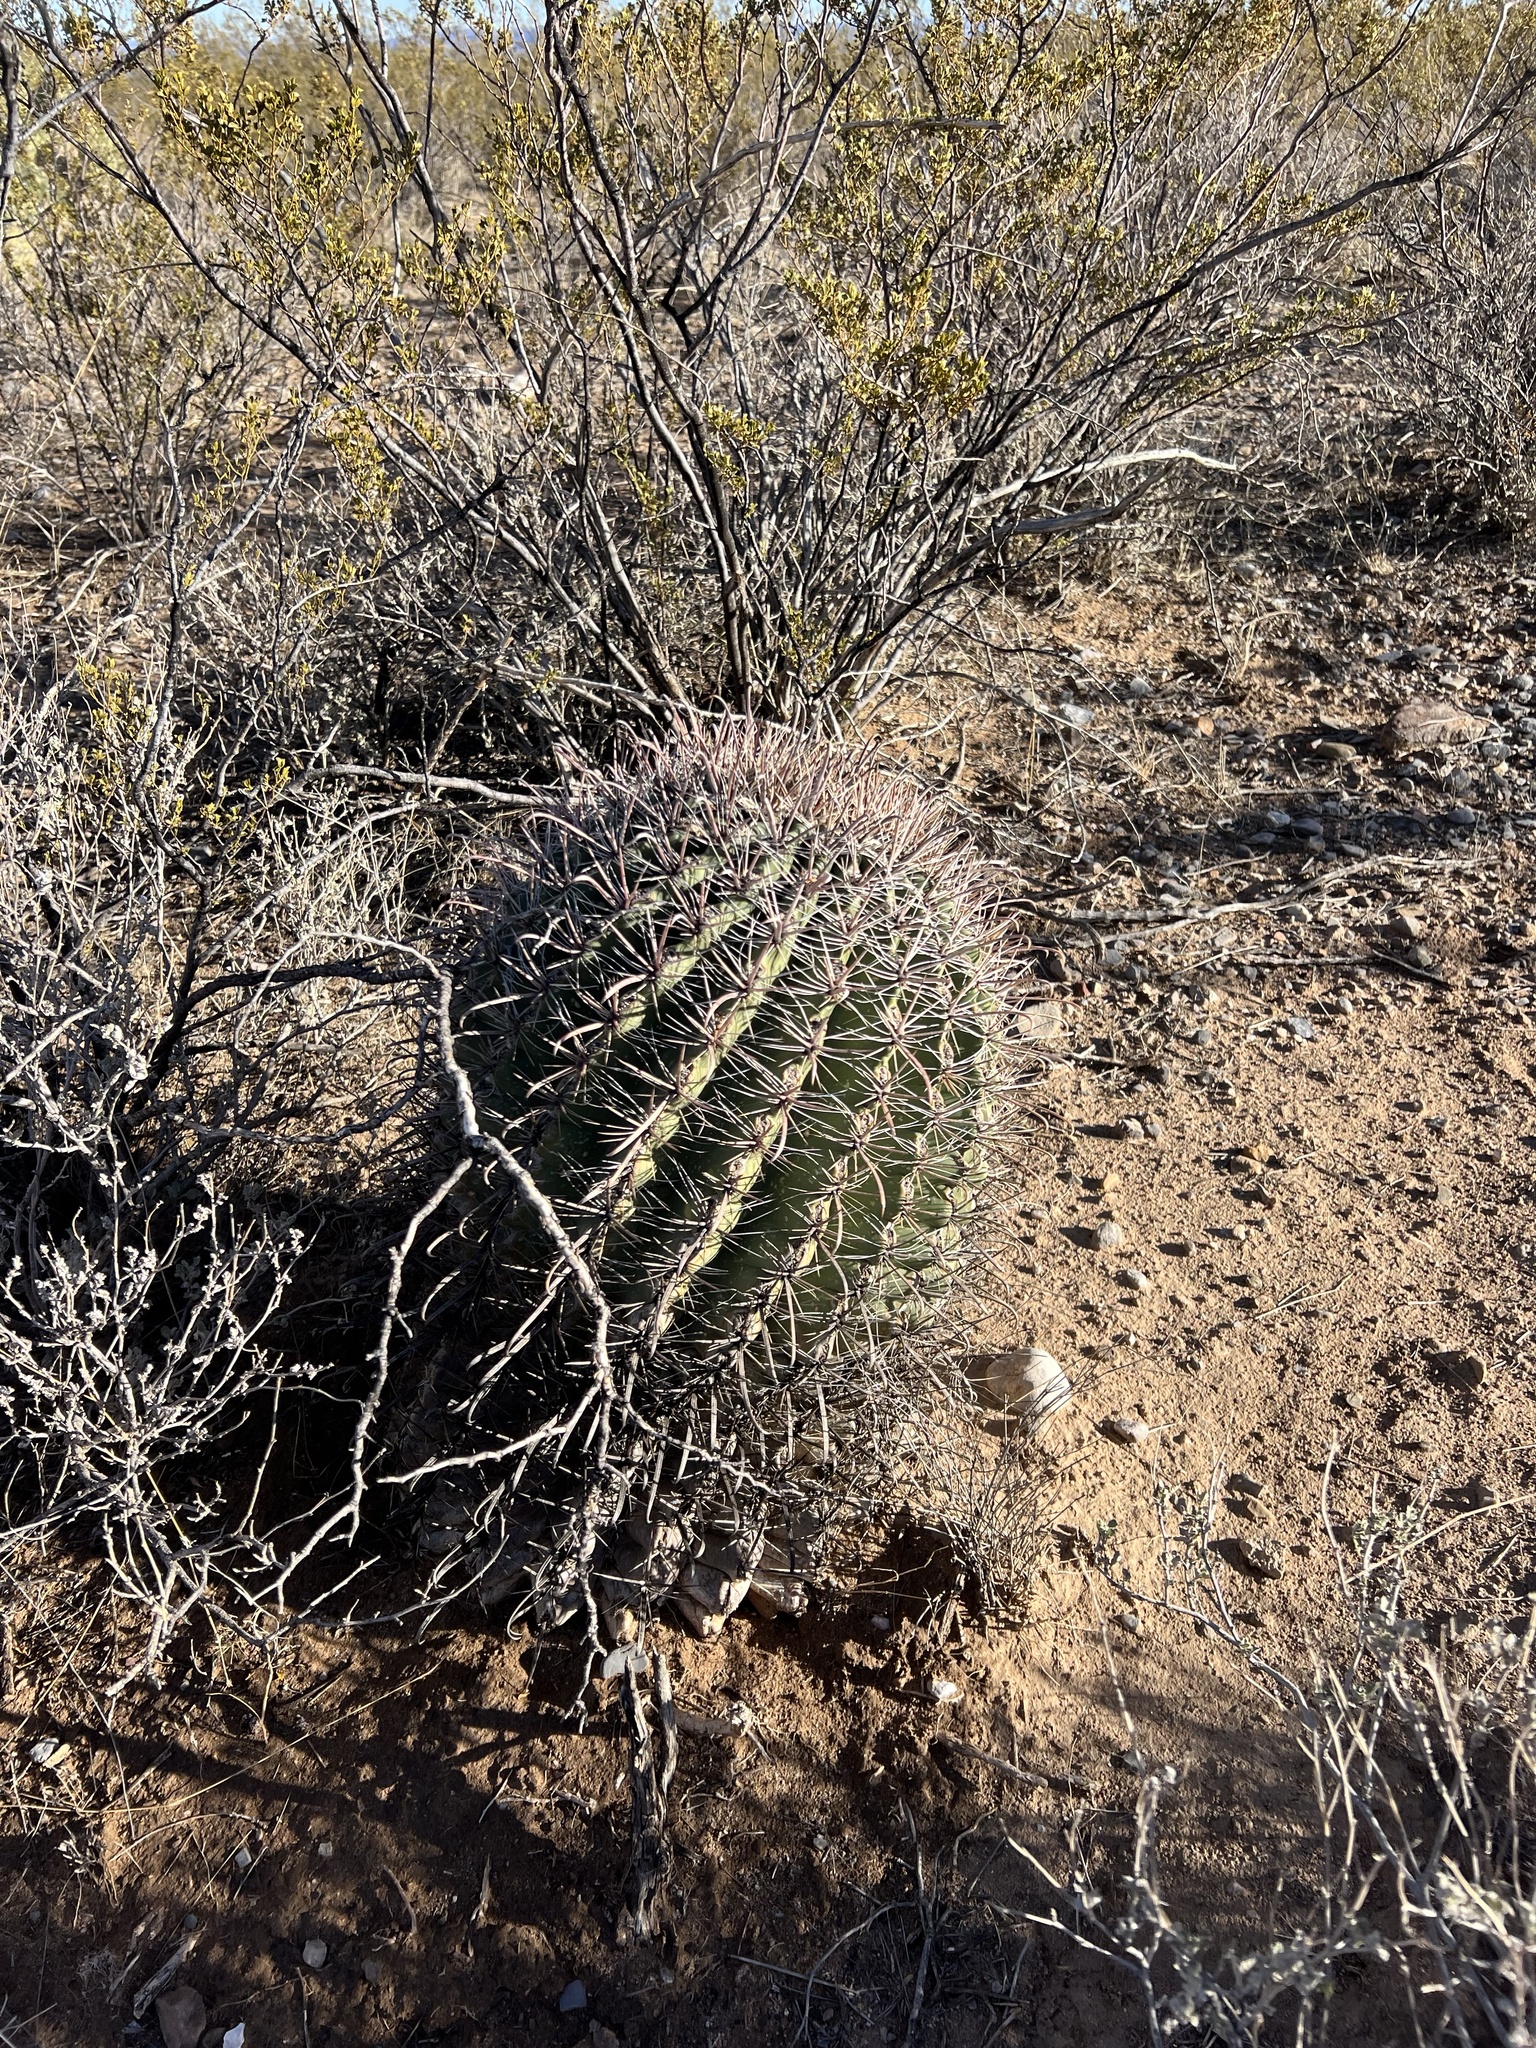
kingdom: Plantae
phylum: Tracheophyta
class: Magnoliopsida
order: Caryophyllales
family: Cactaceae
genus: Ferocactus
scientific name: Ferocactus wislizeni
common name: Candy barrel cactus
